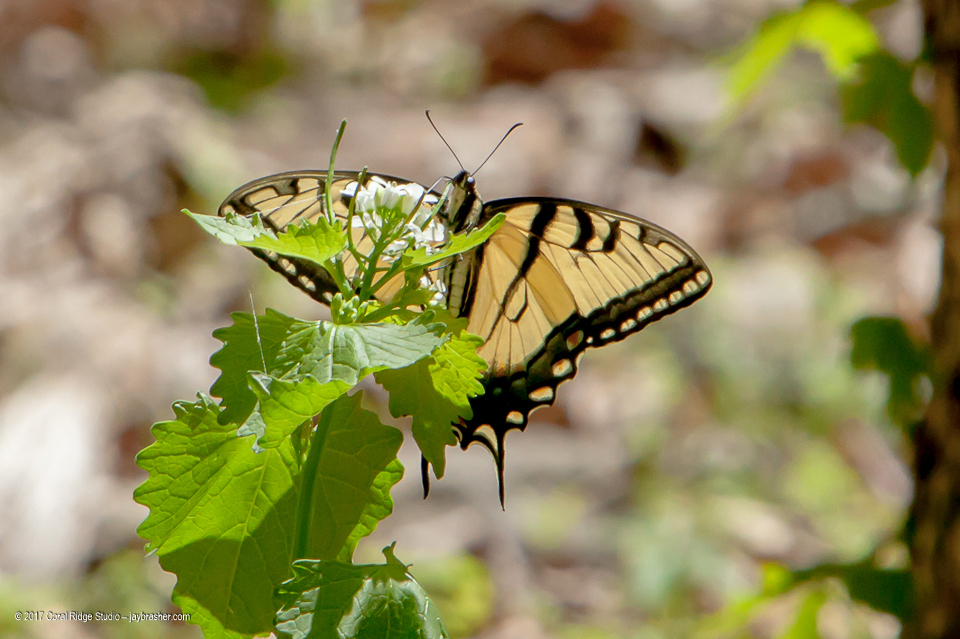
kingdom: Animalia
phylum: Arthropoda
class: Insecta
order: Lepidoptera
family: Papilionidae
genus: Papilio
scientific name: Papilio glaucus
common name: Tiger swallowtail
